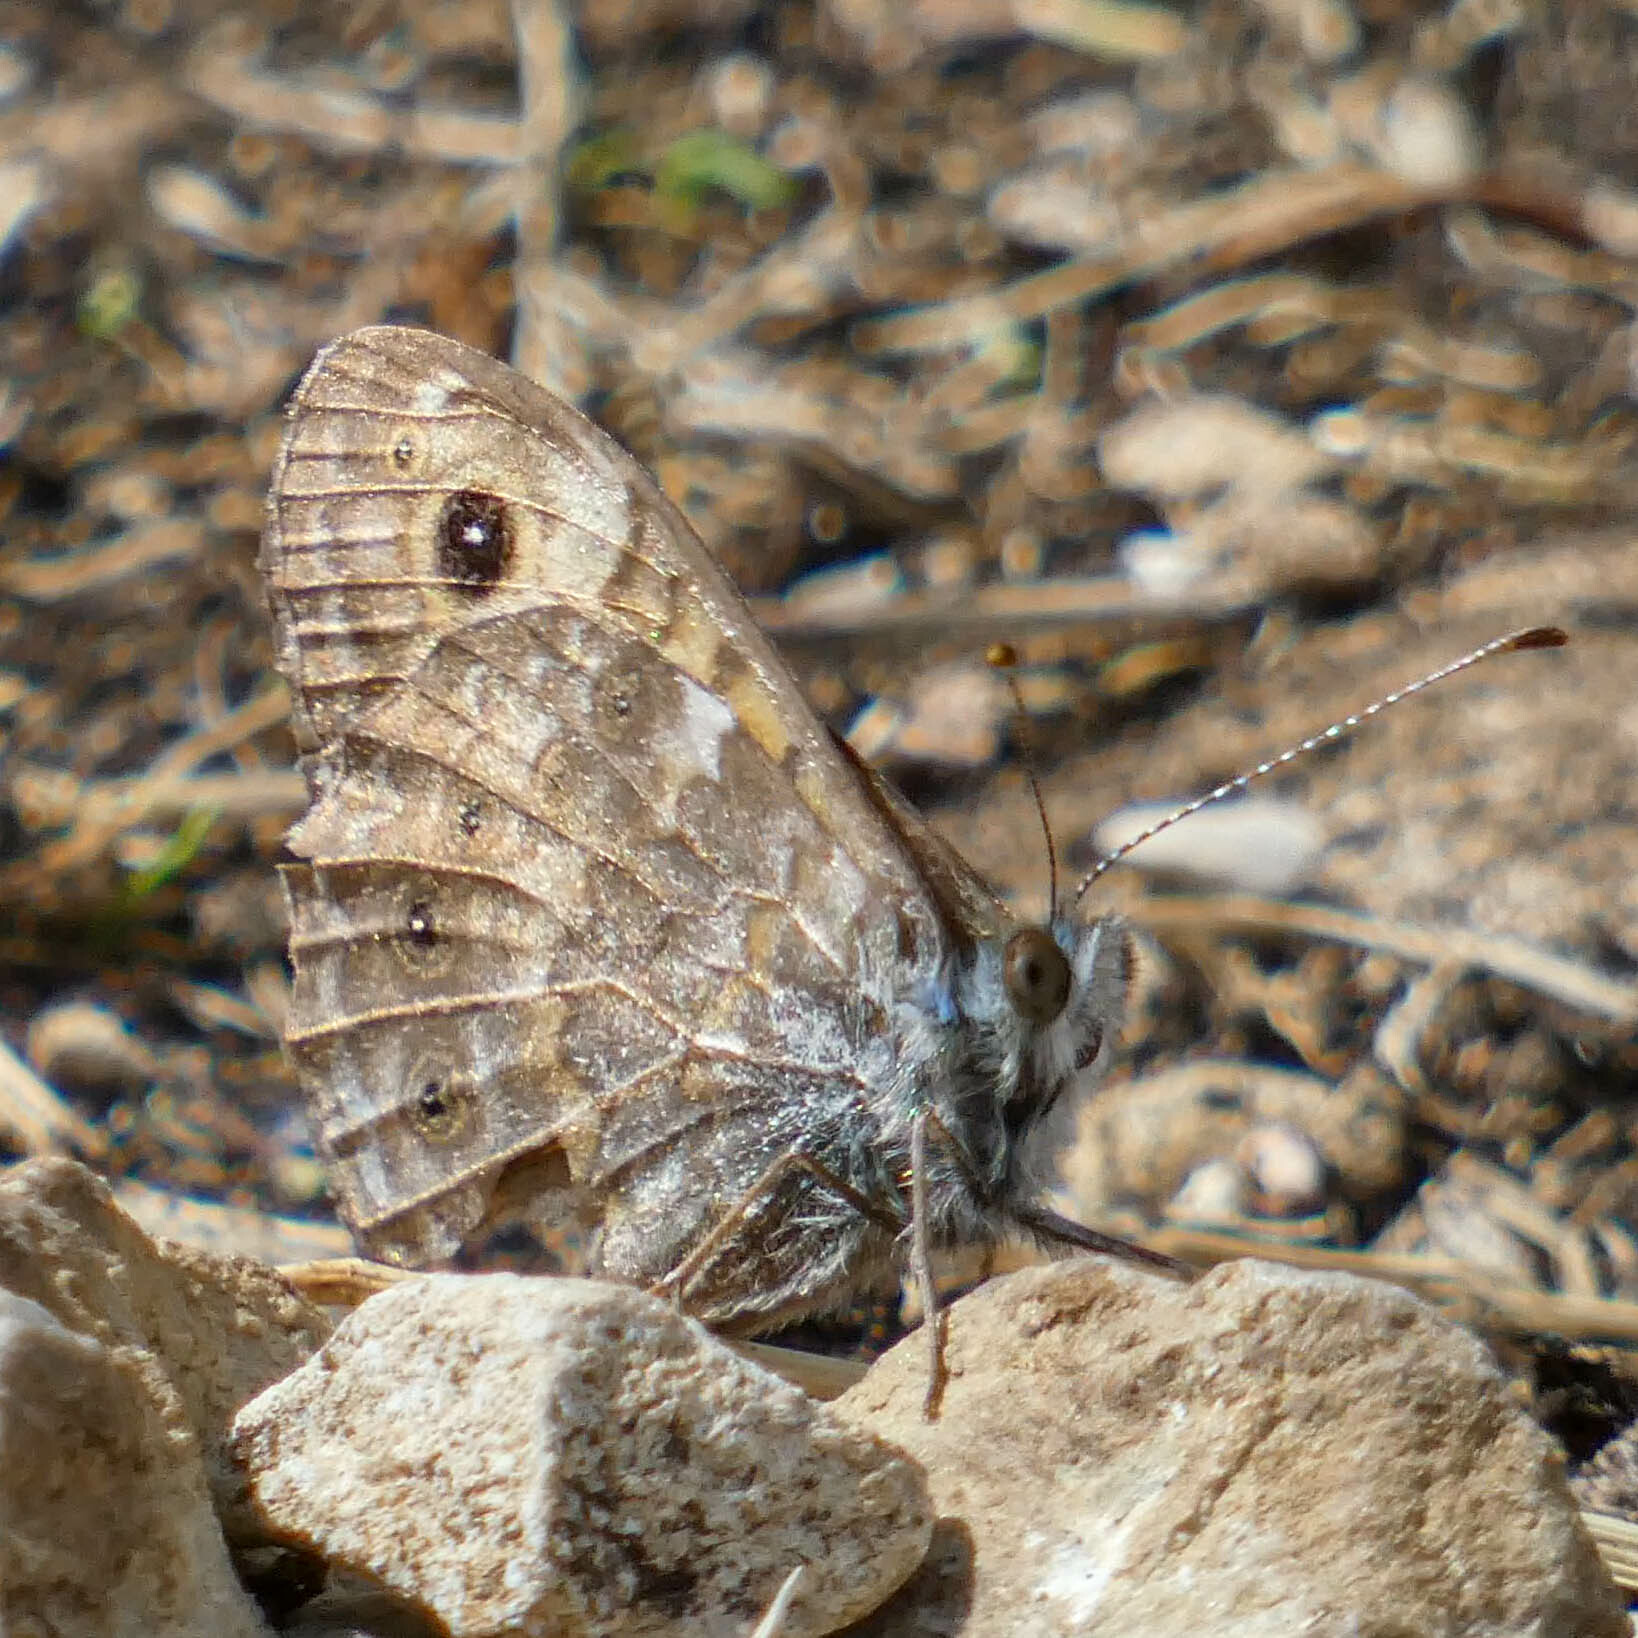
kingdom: Animalia
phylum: Arthropoda
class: Insecta
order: Lepidoptera
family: Nymphalidae
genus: Pararge
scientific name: Pararge Lasiommata megera
